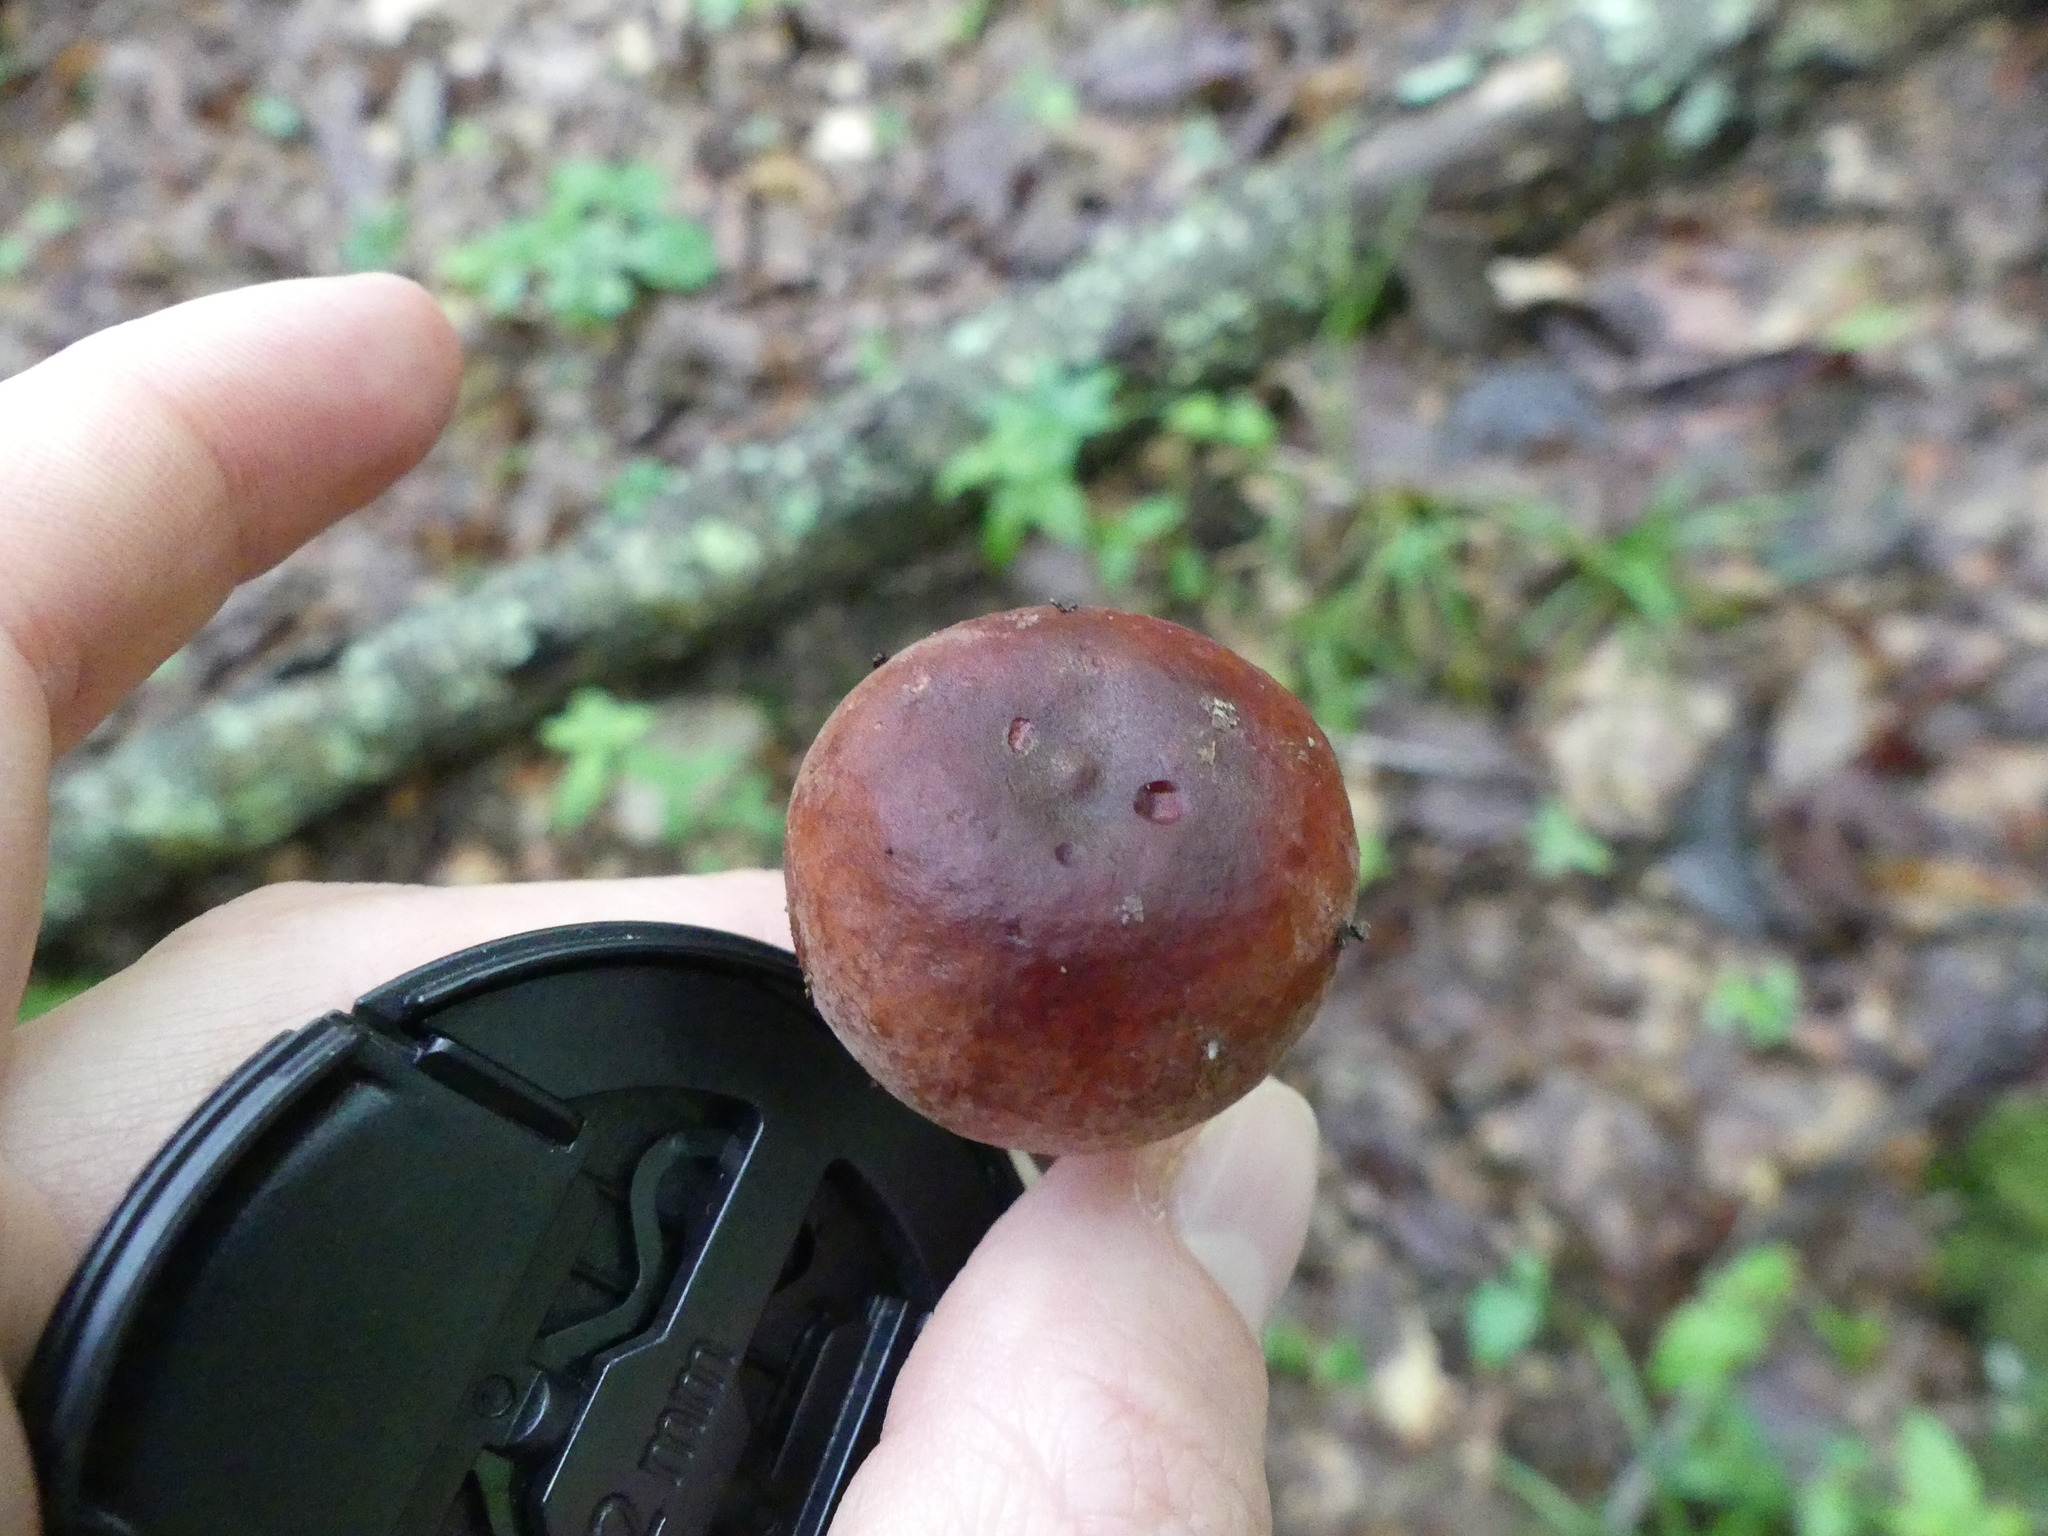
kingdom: Fungi
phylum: Basidiomycota
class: Agaricomycetes
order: Russulales
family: Russulaceae
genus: Lactifluus
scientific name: Lactifluus volemus
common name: Fishy milkcap
